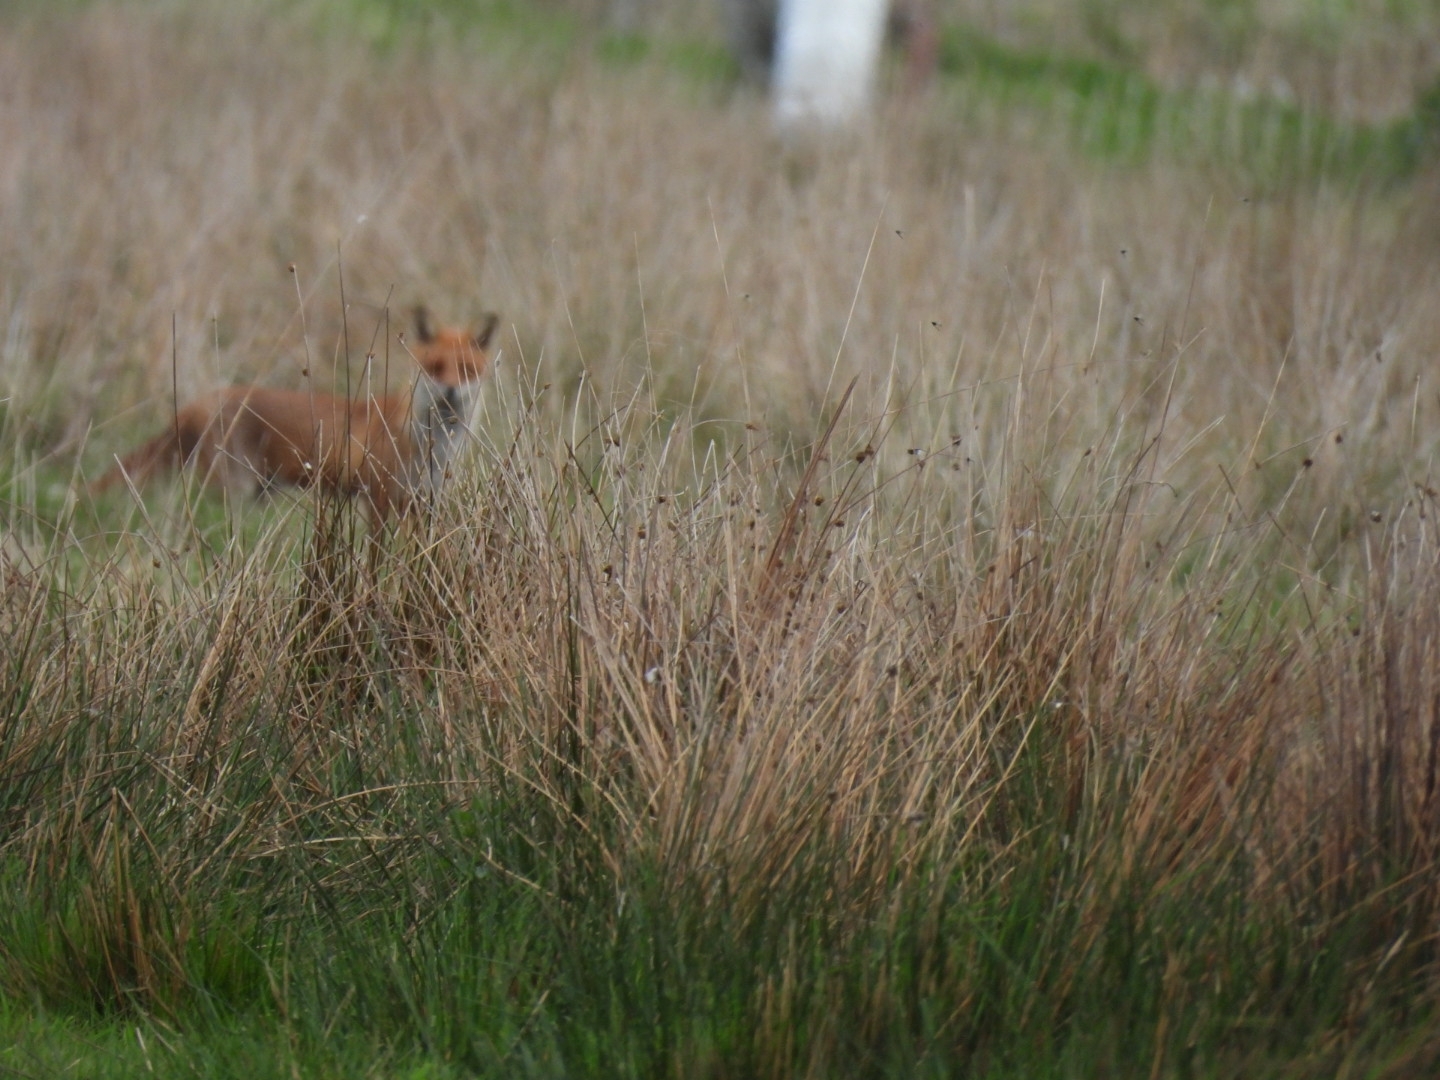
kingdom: Animalia
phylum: Chordata
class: Mammalia
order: Carnivora
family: Canidae
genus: Vulpes
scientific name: Vulpes vulpes
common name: Red fox
